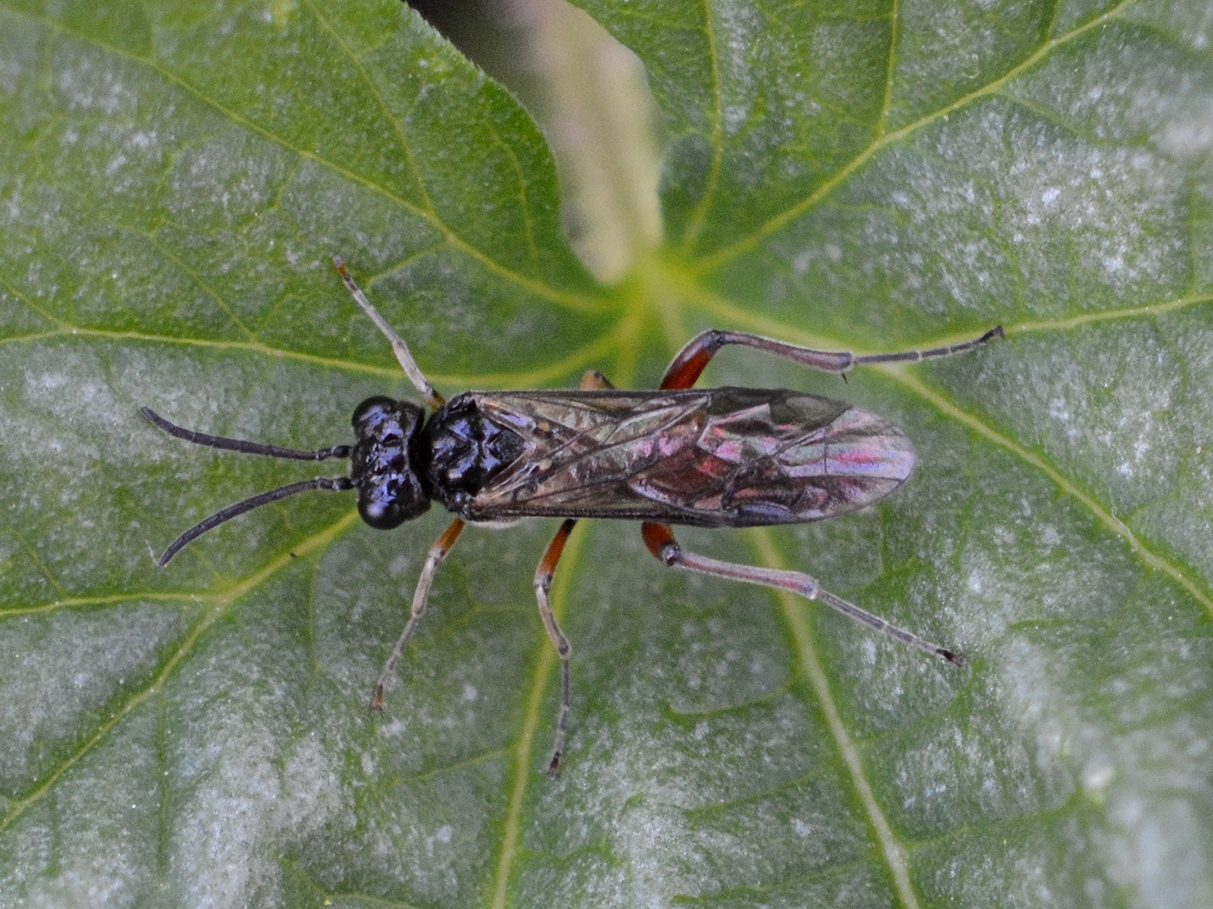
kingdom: Animalia
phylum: Arthropoda
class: Insecta
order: Hymenoptera
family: Tenthredinidae
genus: Taxonus
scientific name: Taxonus agrorum
